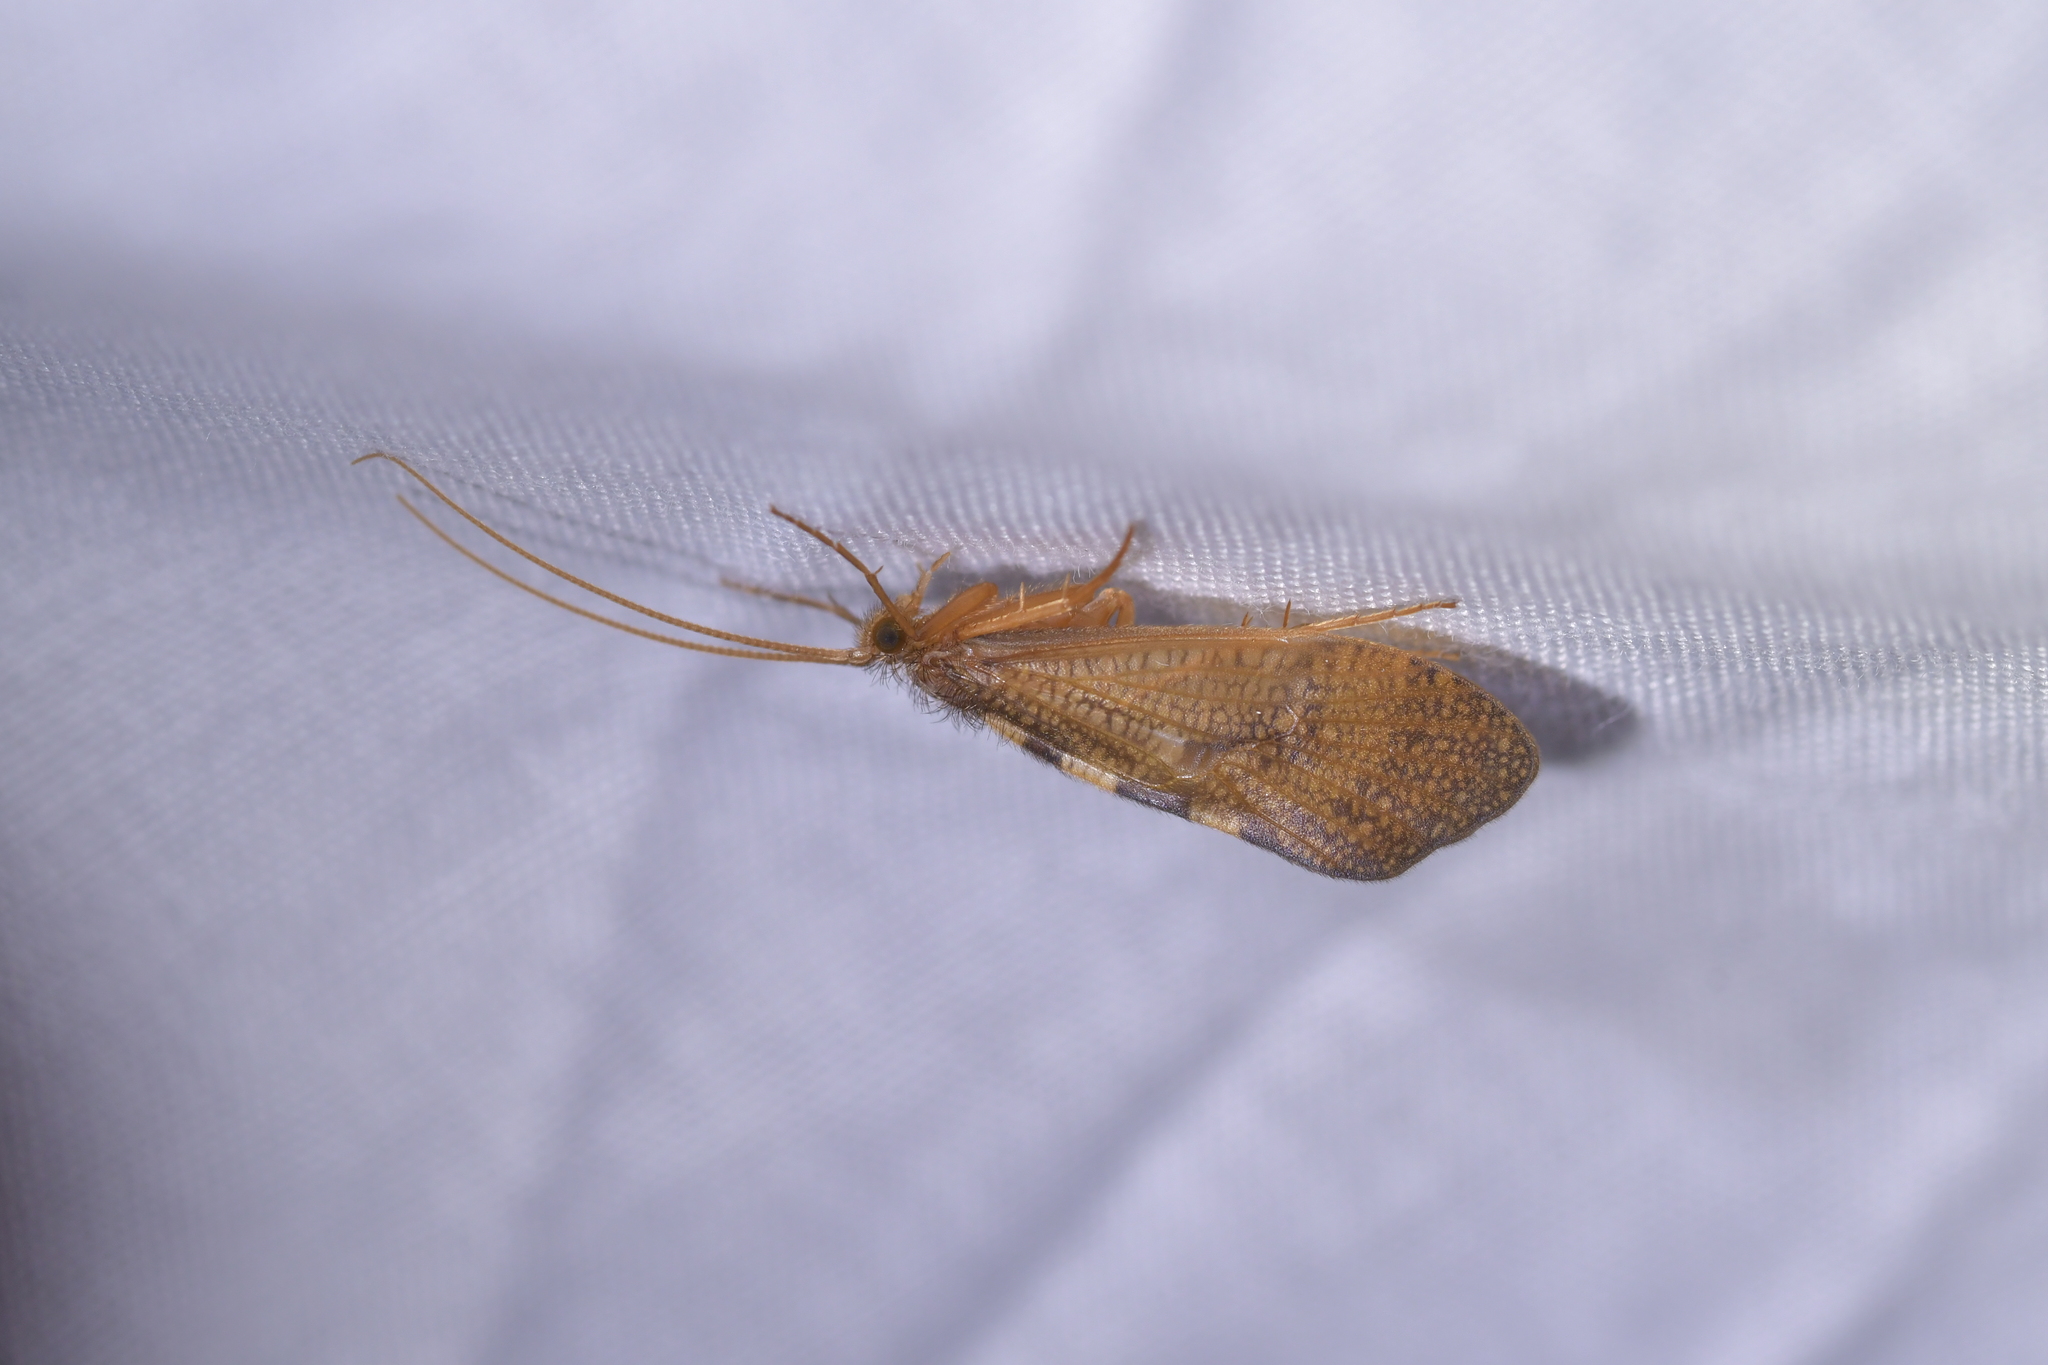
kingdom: Animalia
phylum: Arthropoda
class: Insecta
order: Trichoptera
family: Oeconesidae
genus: Oeconesus
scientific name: Oeconesus maori
